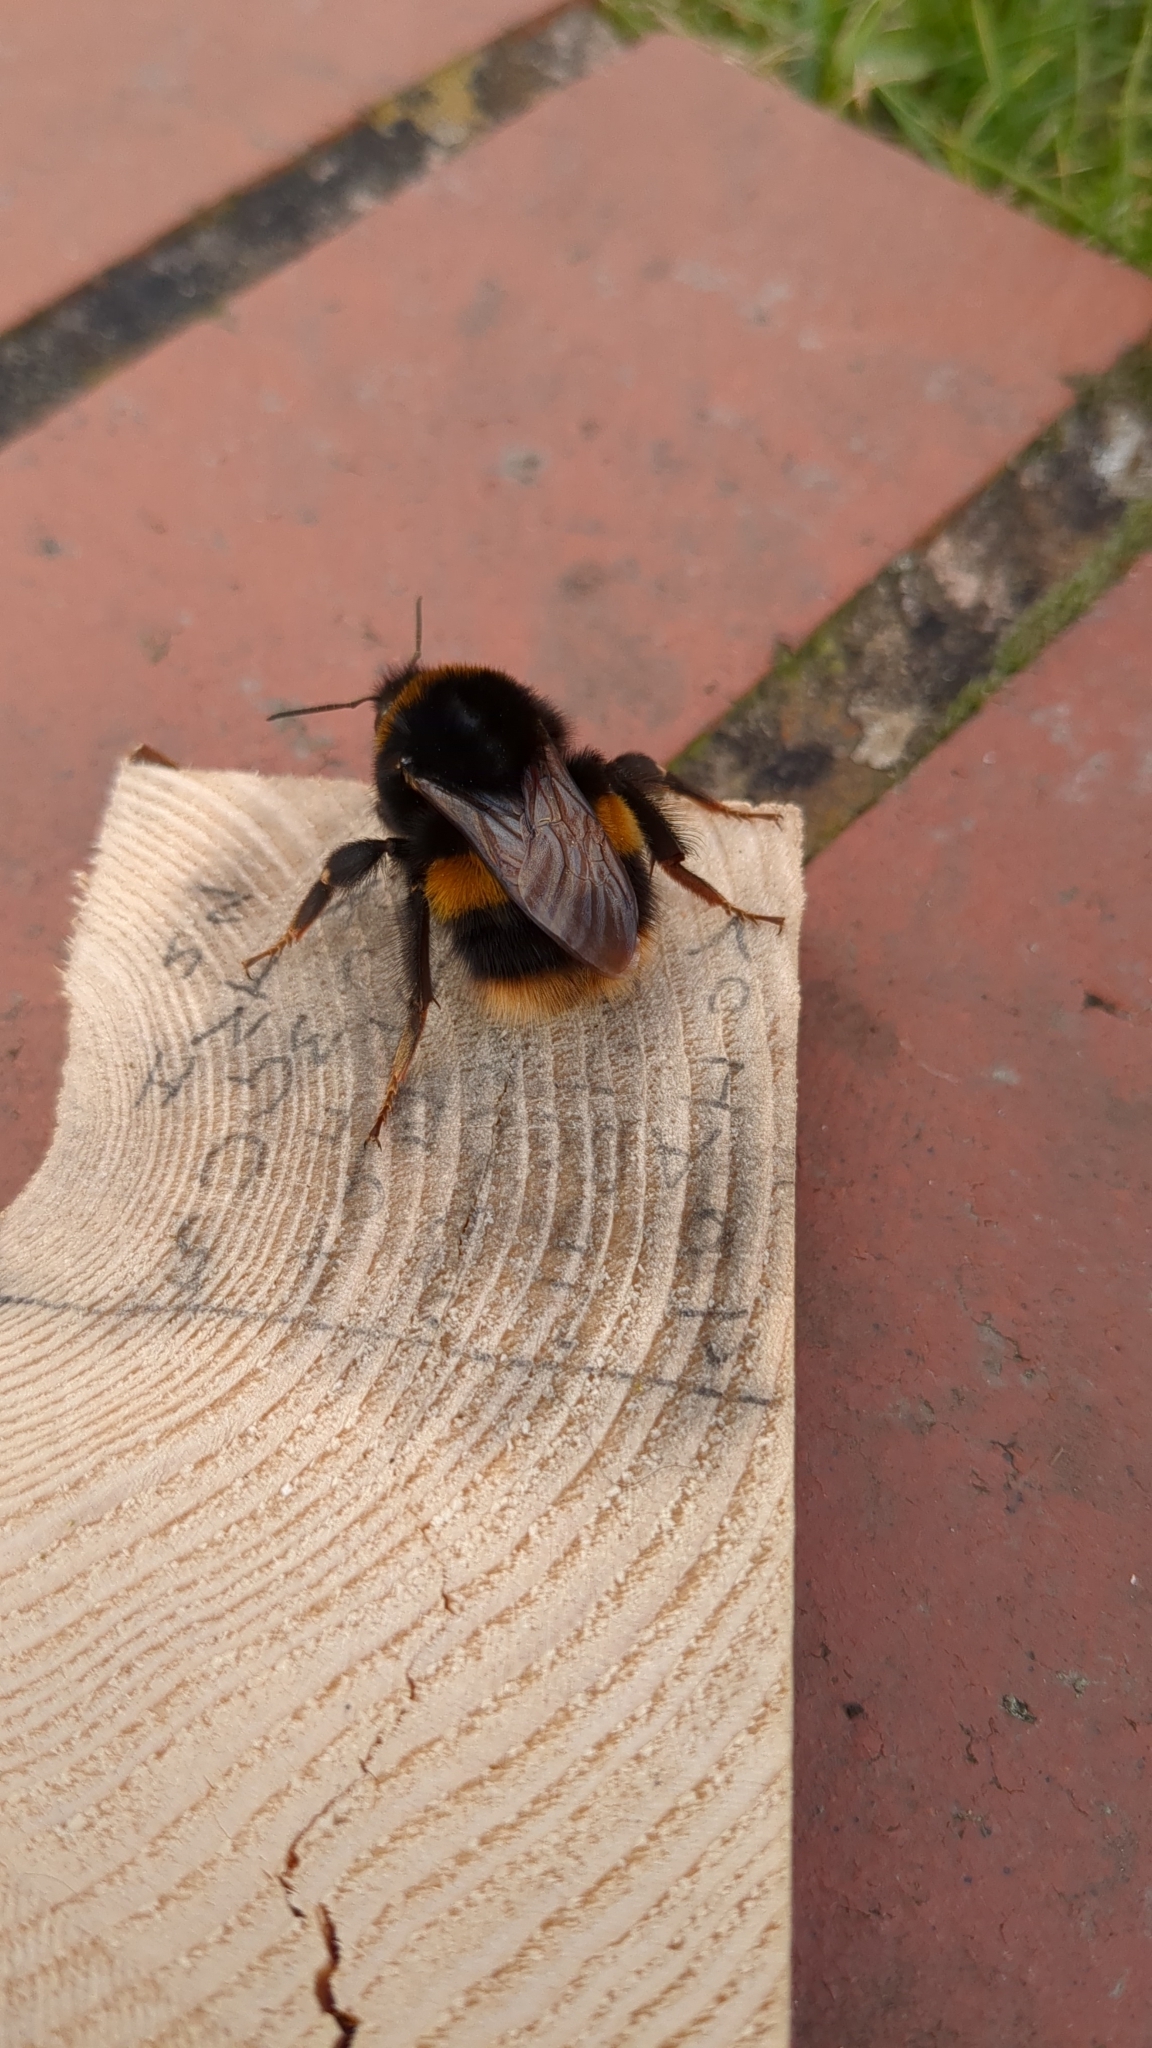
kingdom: Animalia
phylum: Arthropoda
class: Insecta
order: Hymenoptera
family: Apidae
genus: Bombus
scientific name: Bombus terrestris
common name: Buff-tailed bumblebee
